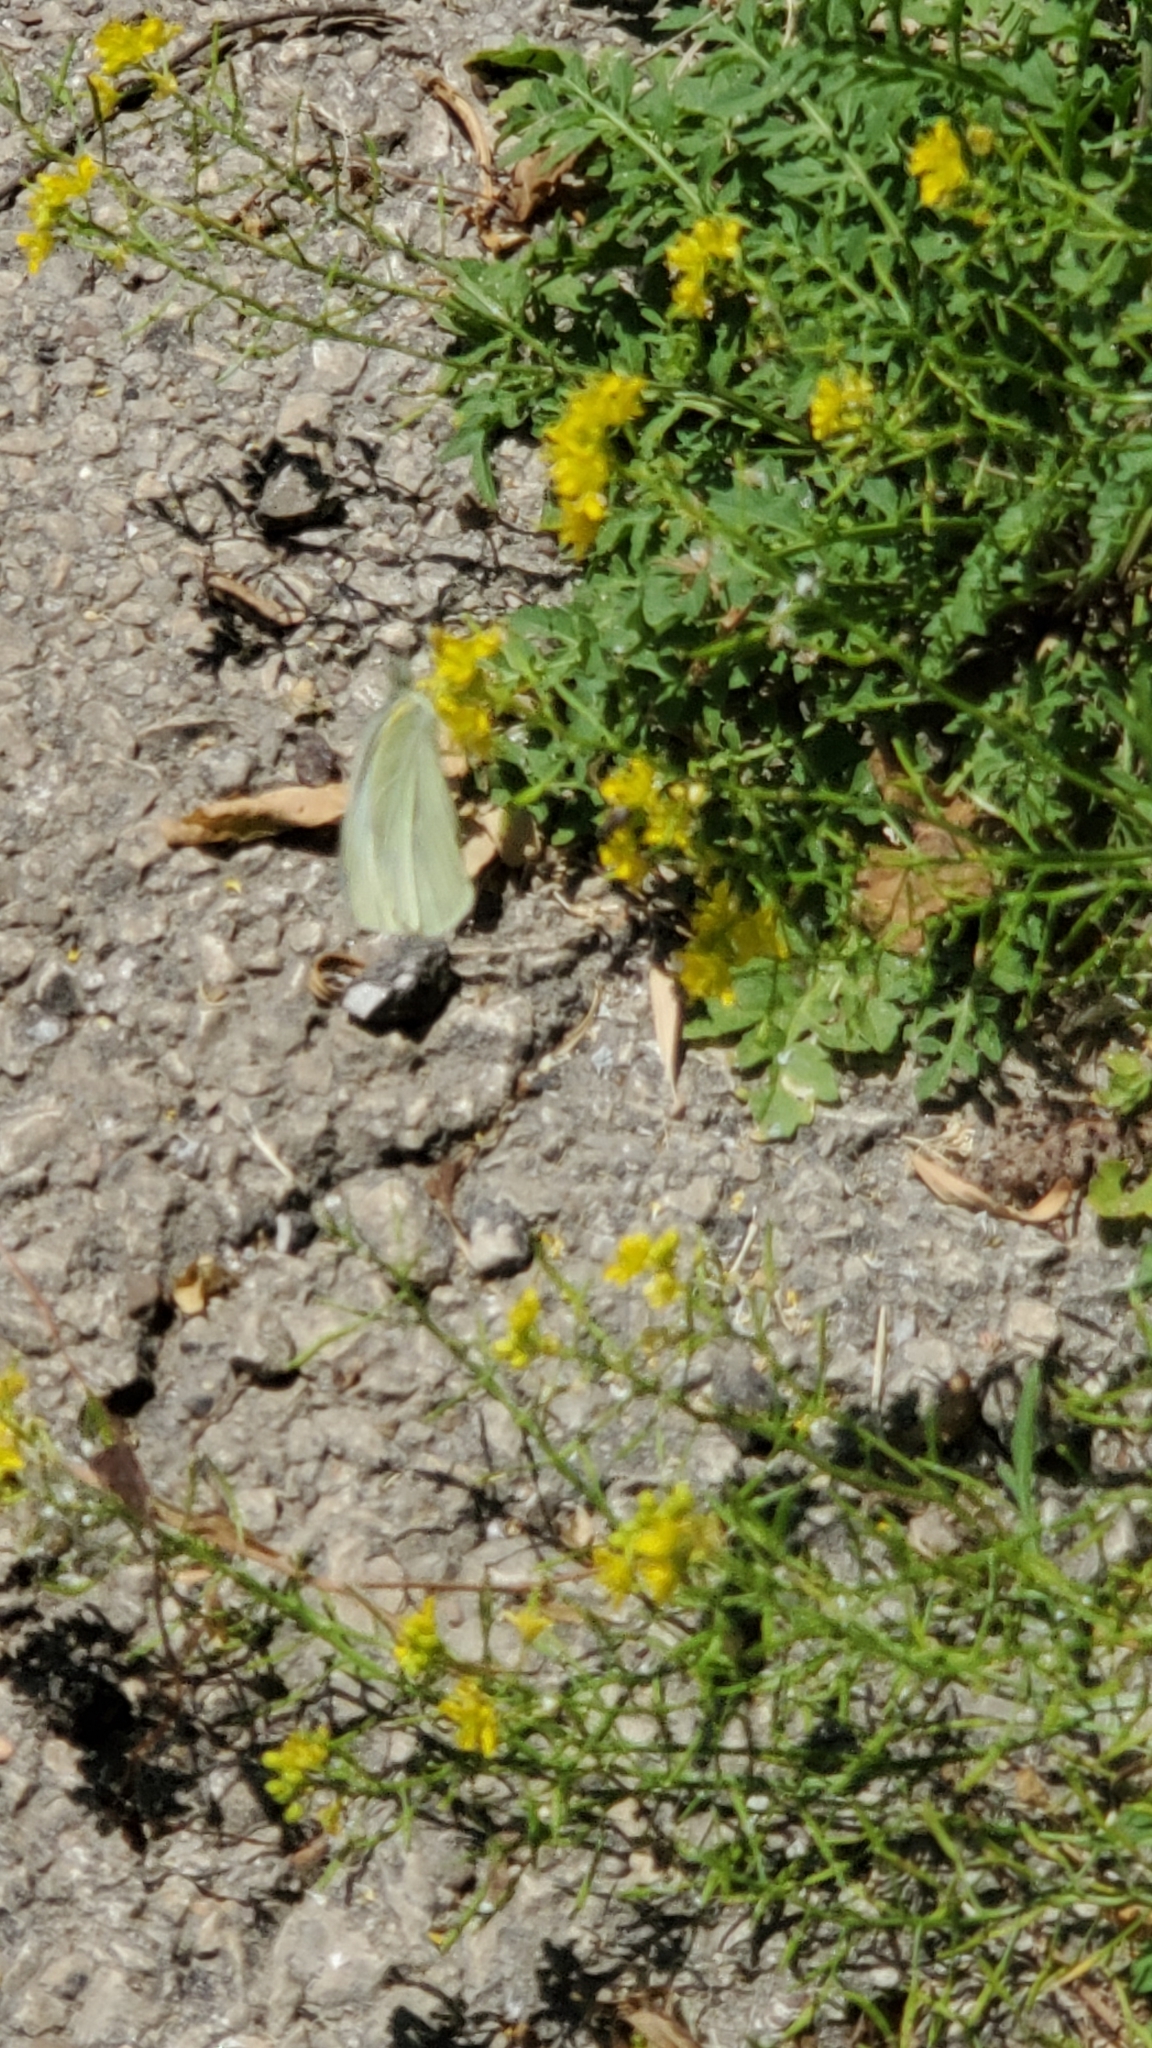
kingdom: Animalia
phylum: Arthropoda
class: Insecta
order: Lepidoptera
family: Pieridae
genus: Pieris
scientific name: Pieris rapae
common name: Small white
